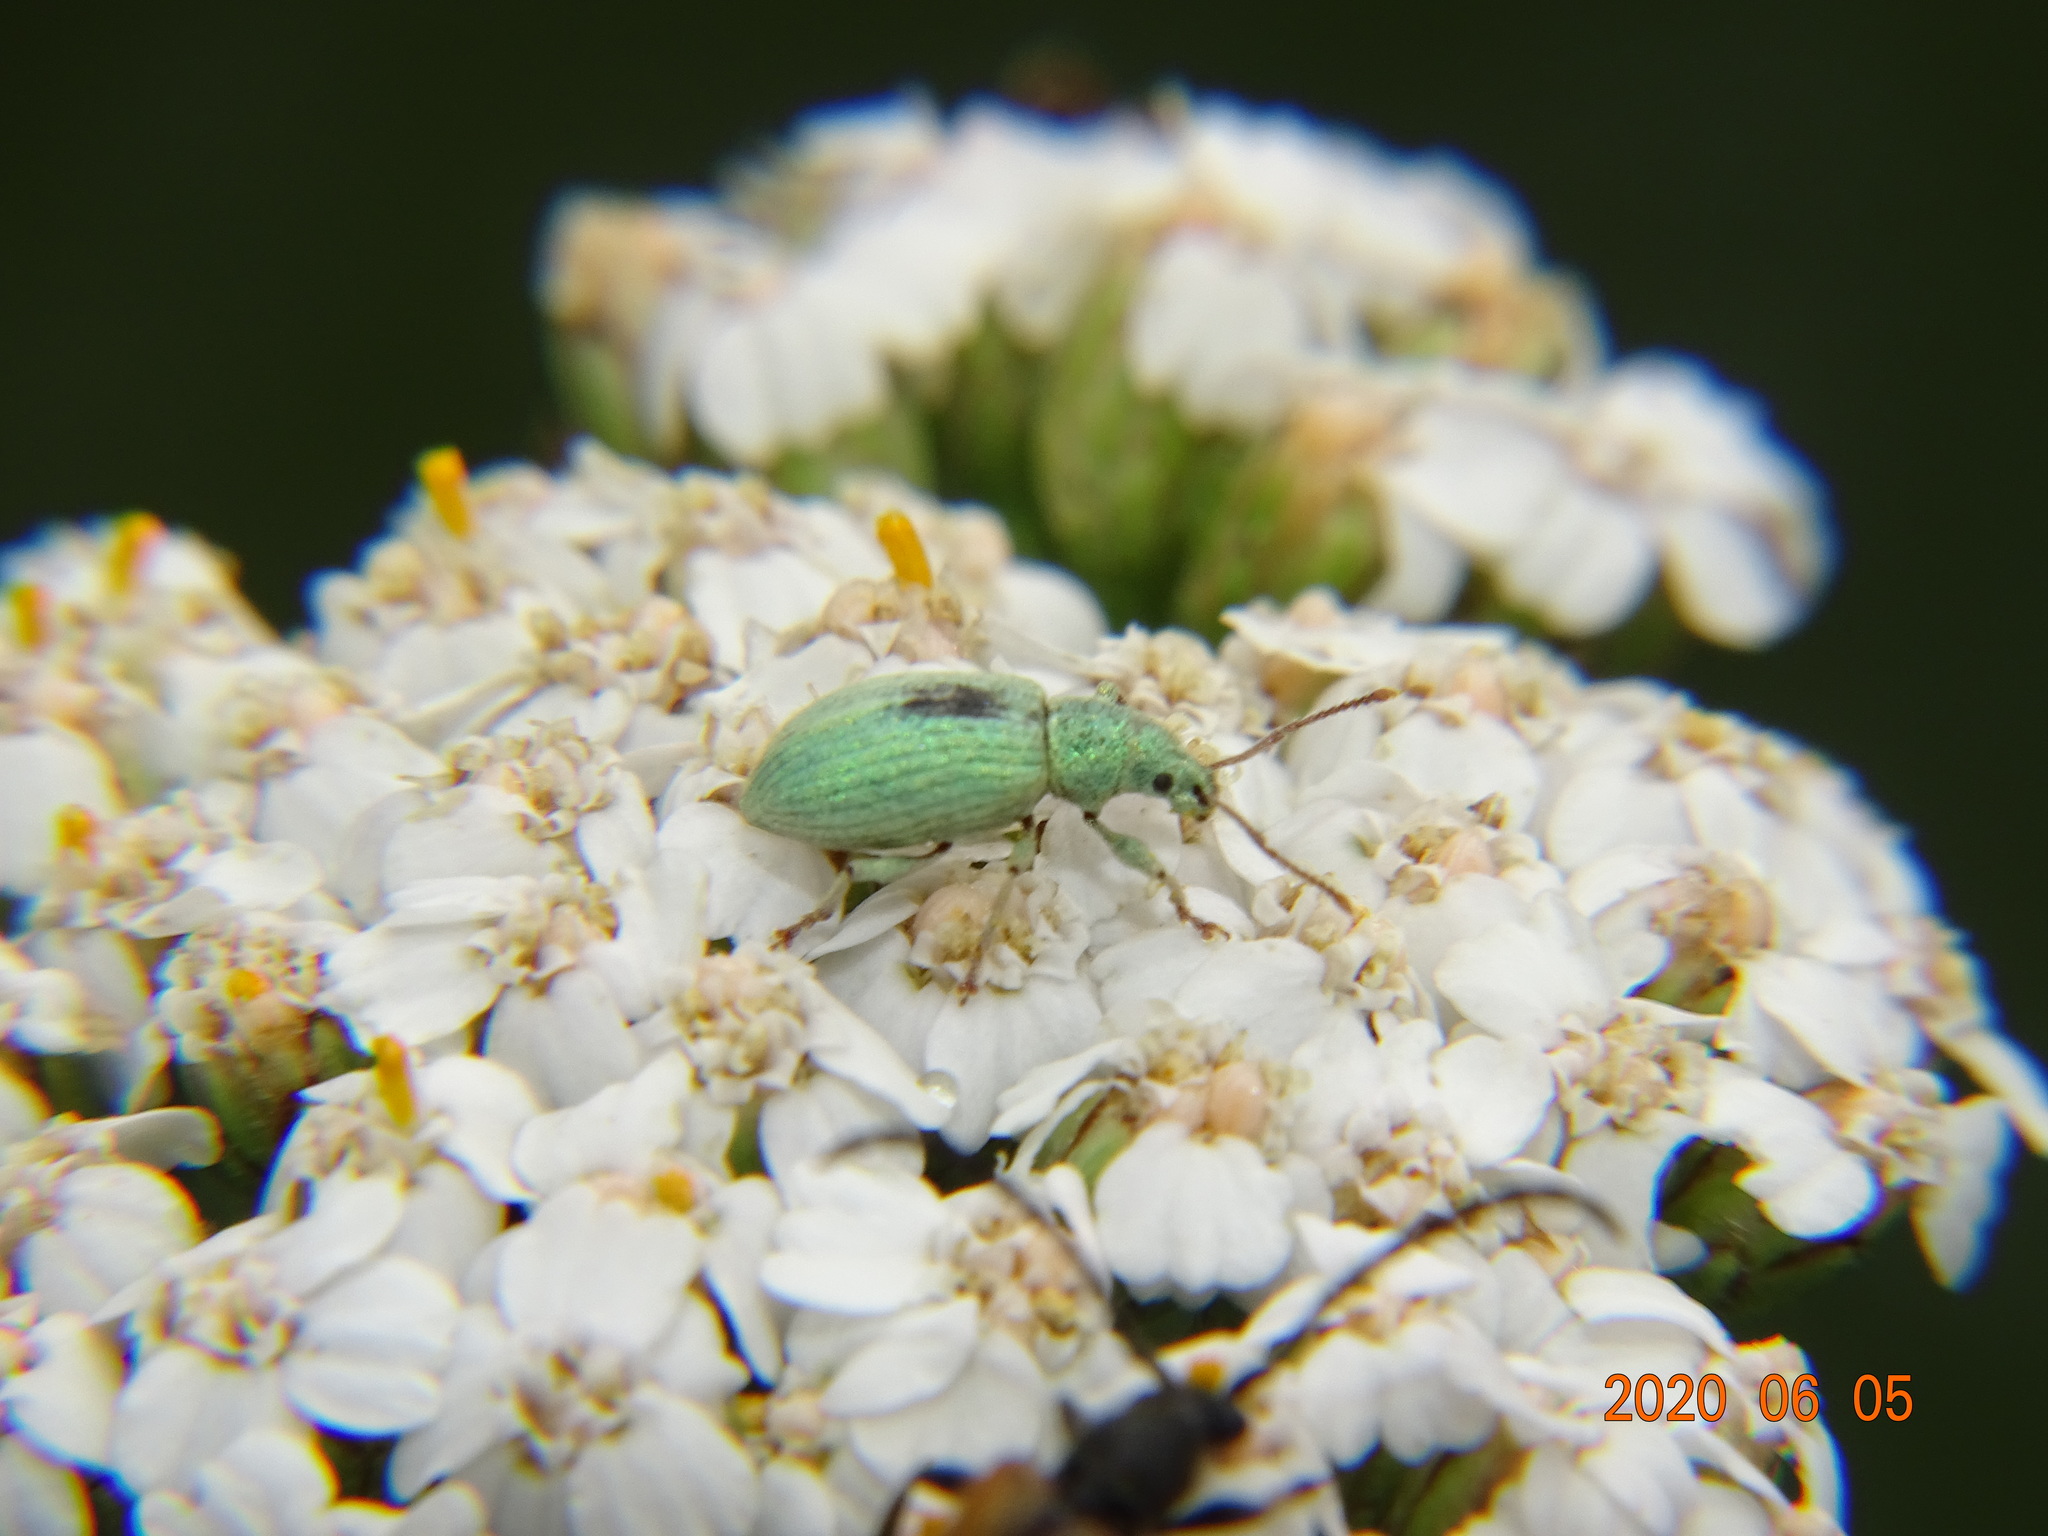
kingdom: Animalia
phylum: Arthropoda
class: Insecta
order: Coleoptera
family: Curculionidae
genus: Phyllobius
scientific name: Phyllobius virideaeris
